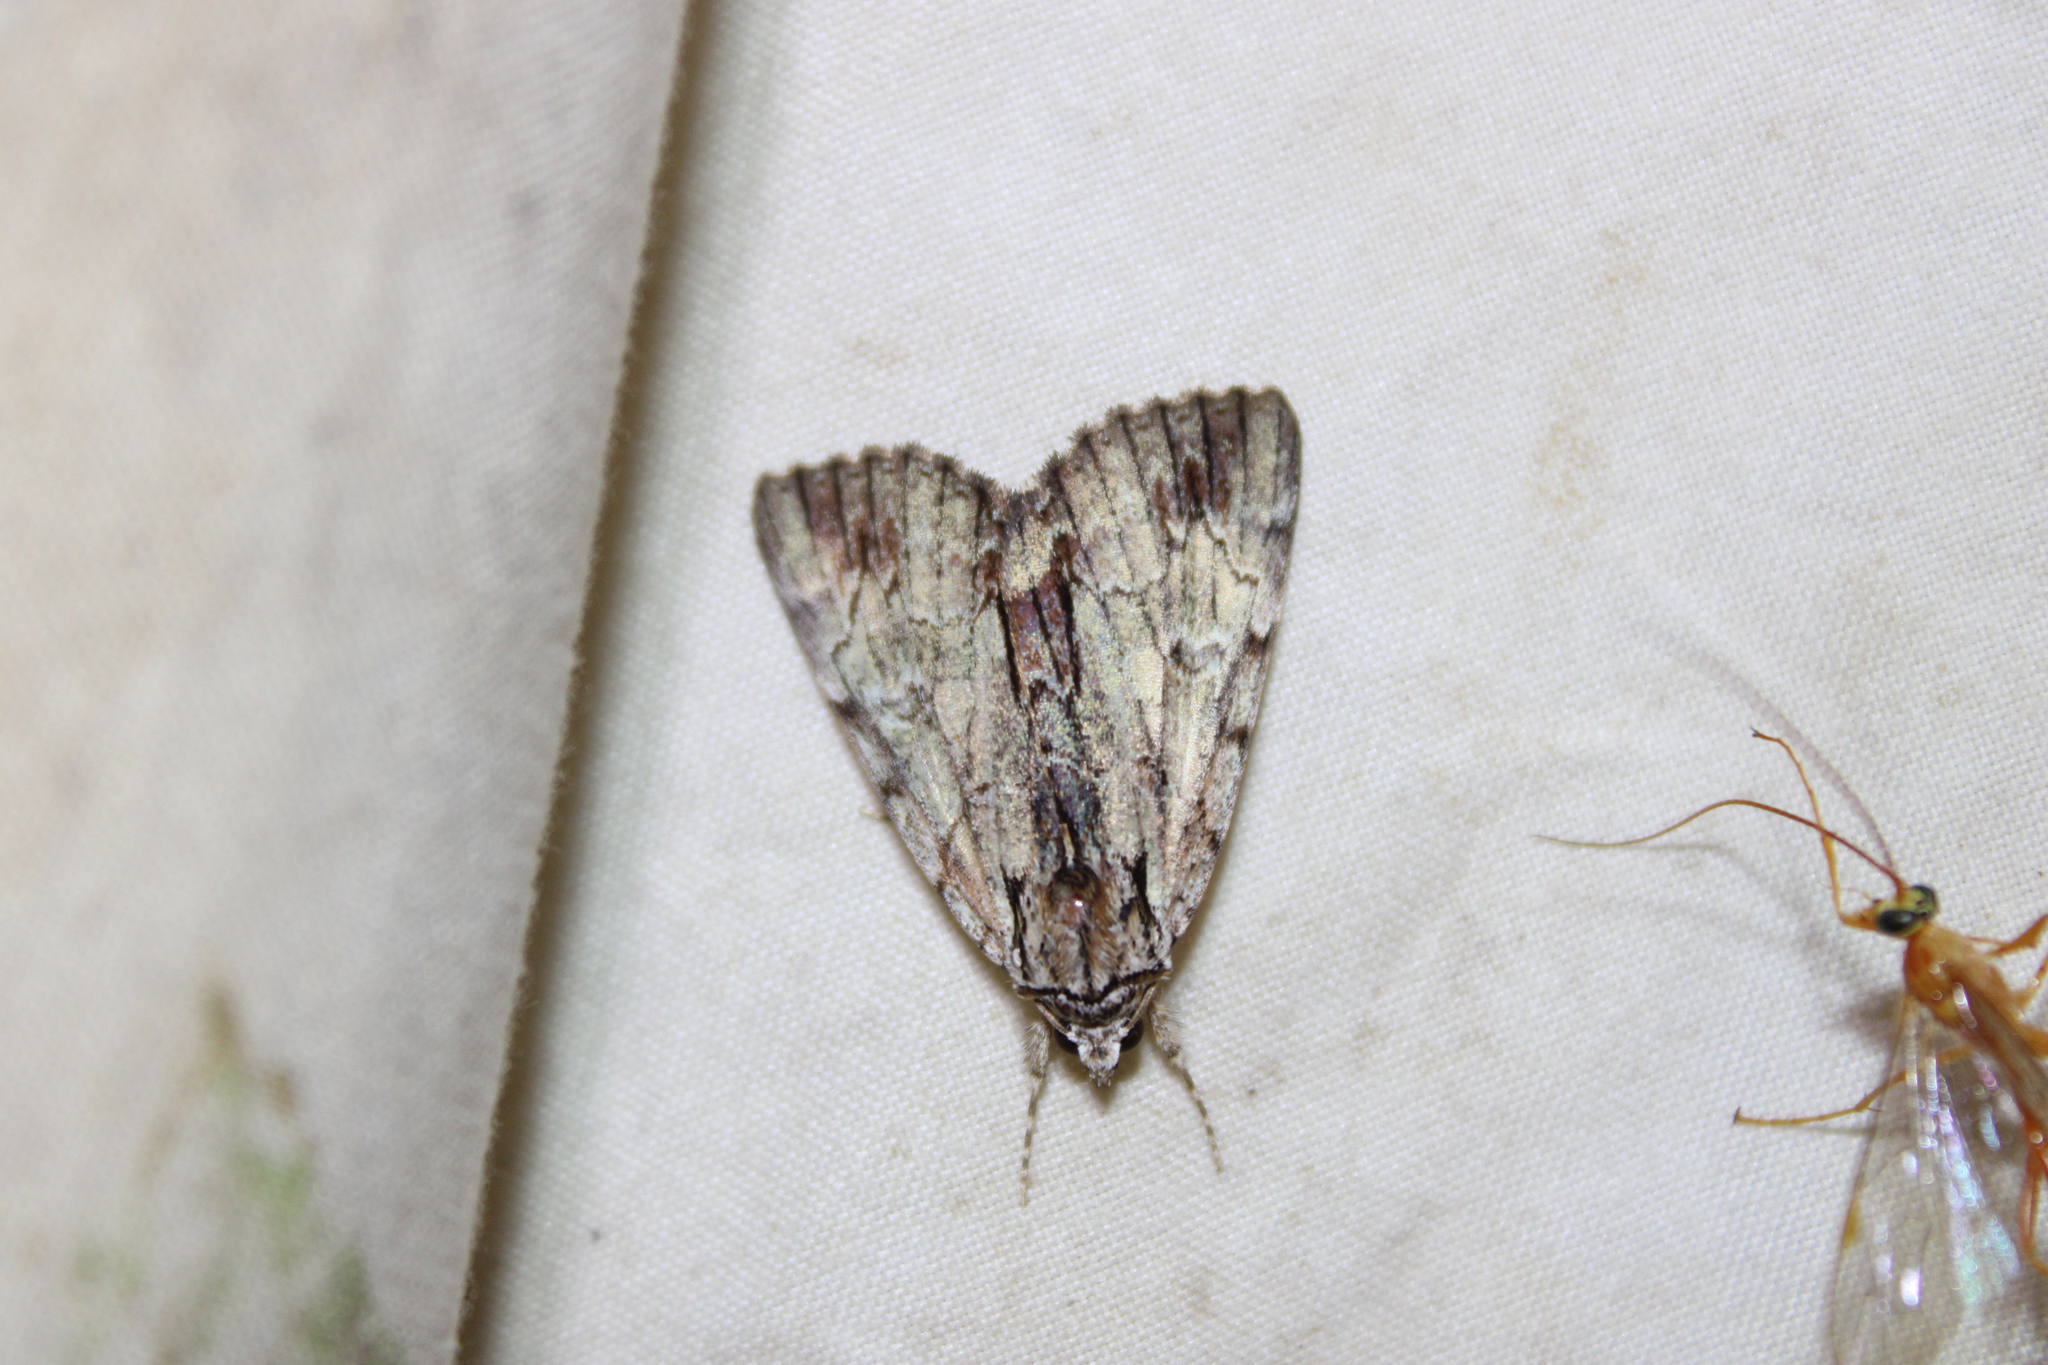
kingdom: Animalia
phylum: Arthropoda
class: Insecta
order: Lepidoptera
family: Erebidae
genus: Catocala
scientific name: Catocala praeclara
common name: Praeclara underwing
